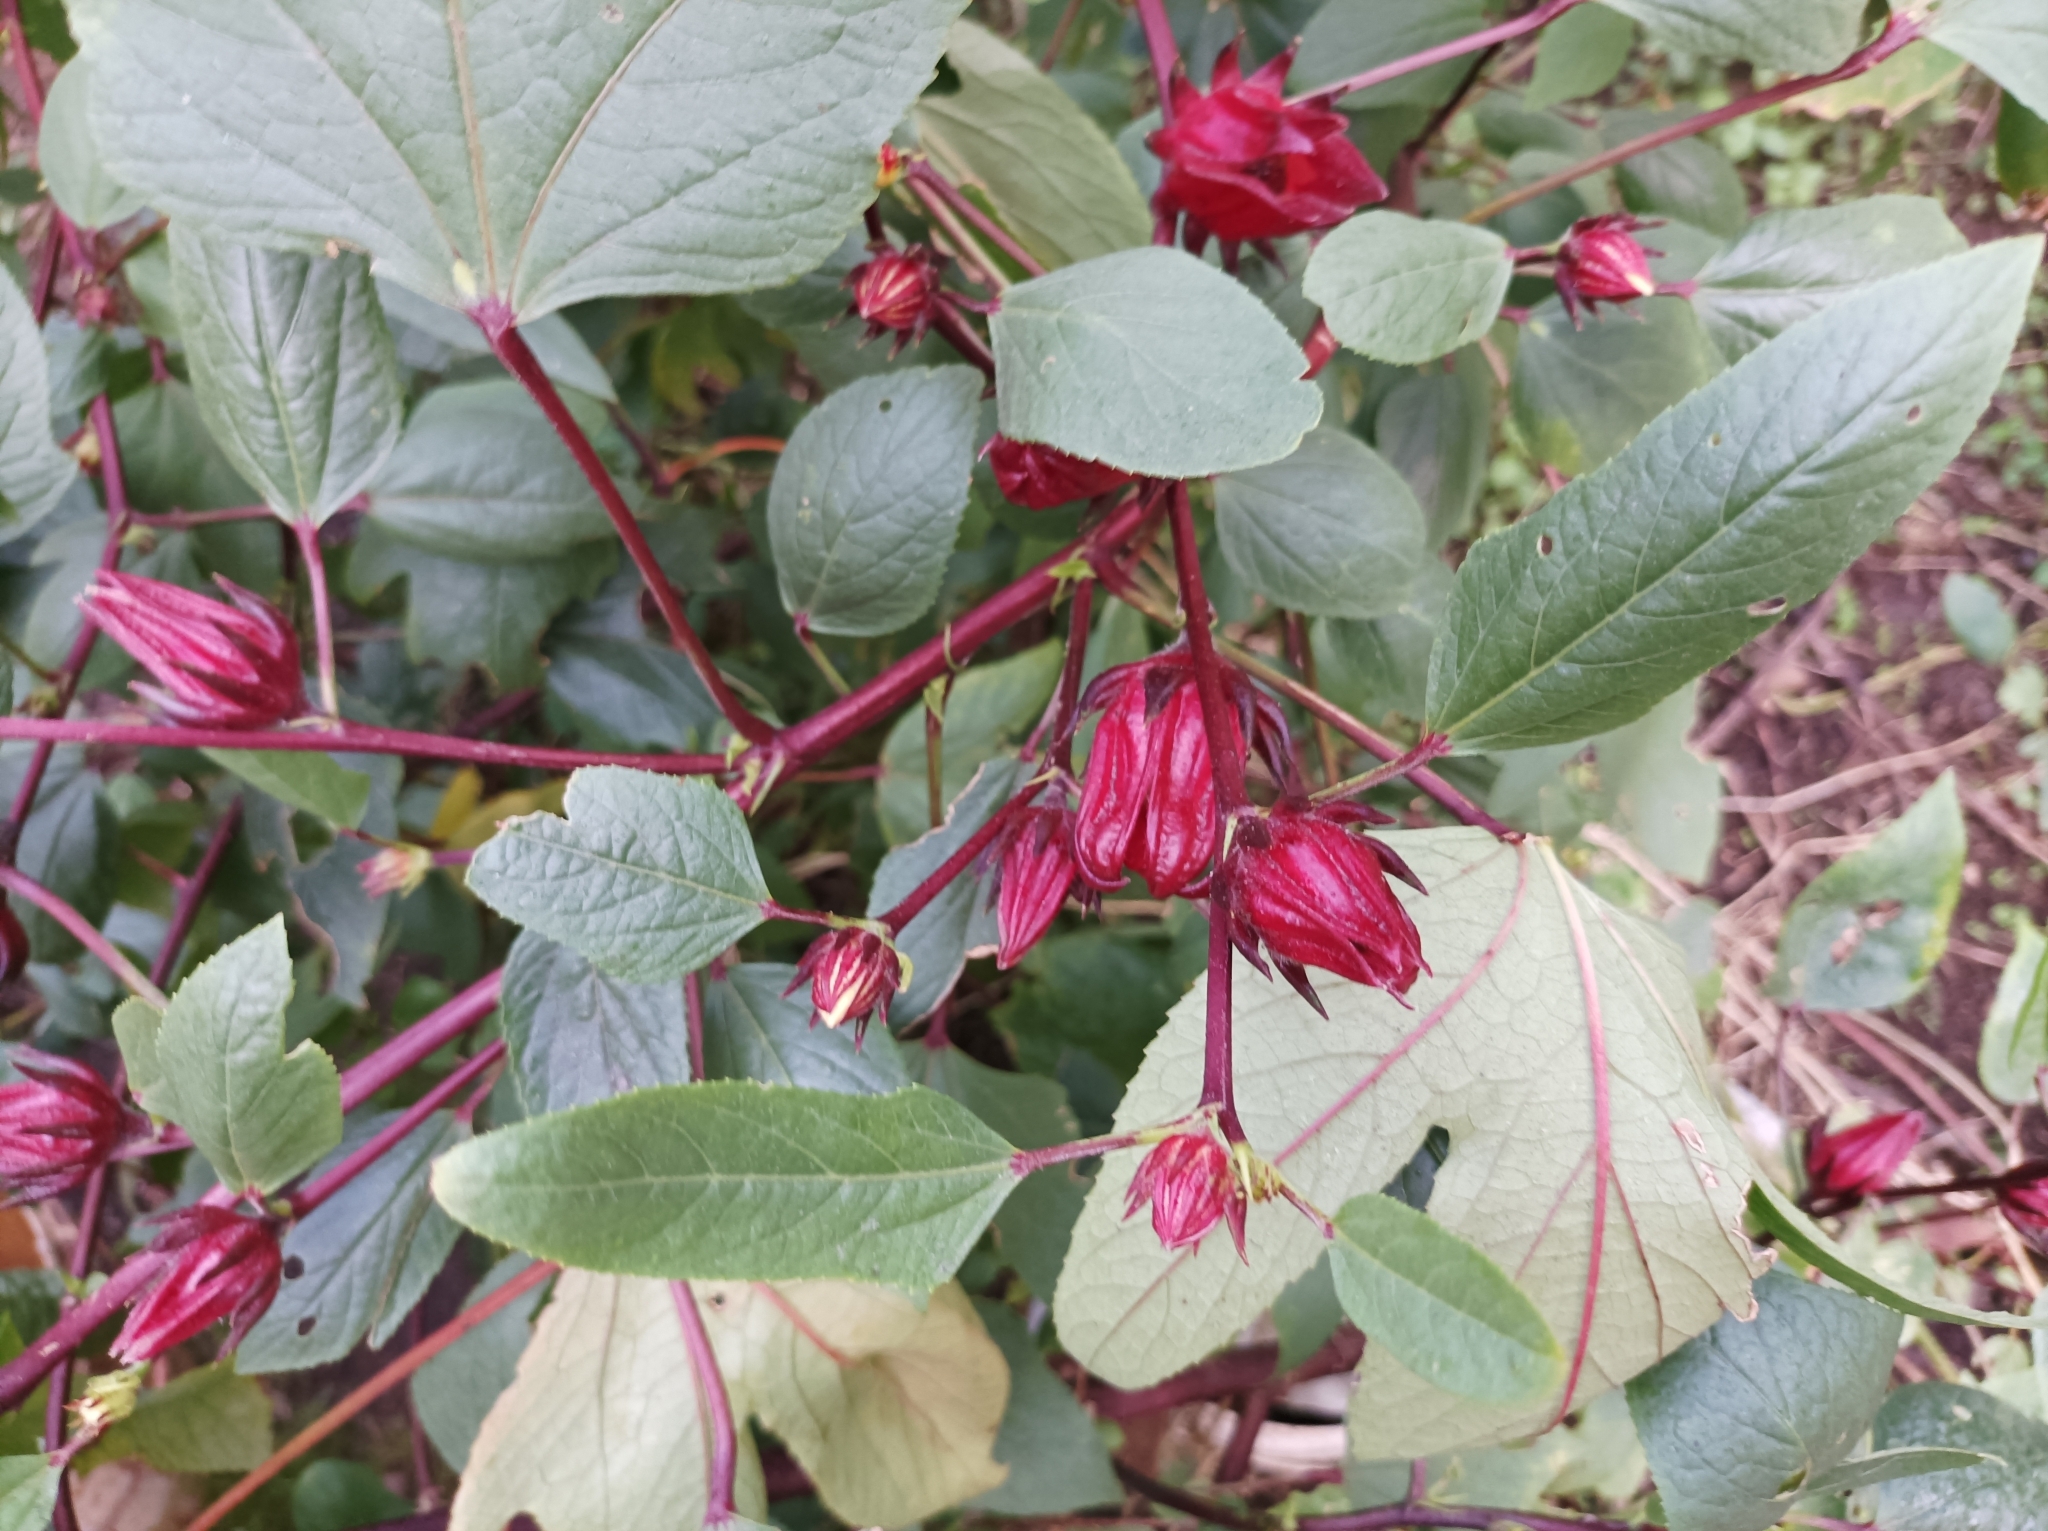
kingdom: Plantae
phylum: Tracheophyta
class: Magnoliopsida
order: Malvales
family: Malvaceae
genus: Hibiscus
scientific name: Hibiscus sabdariffa
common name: Roselle
